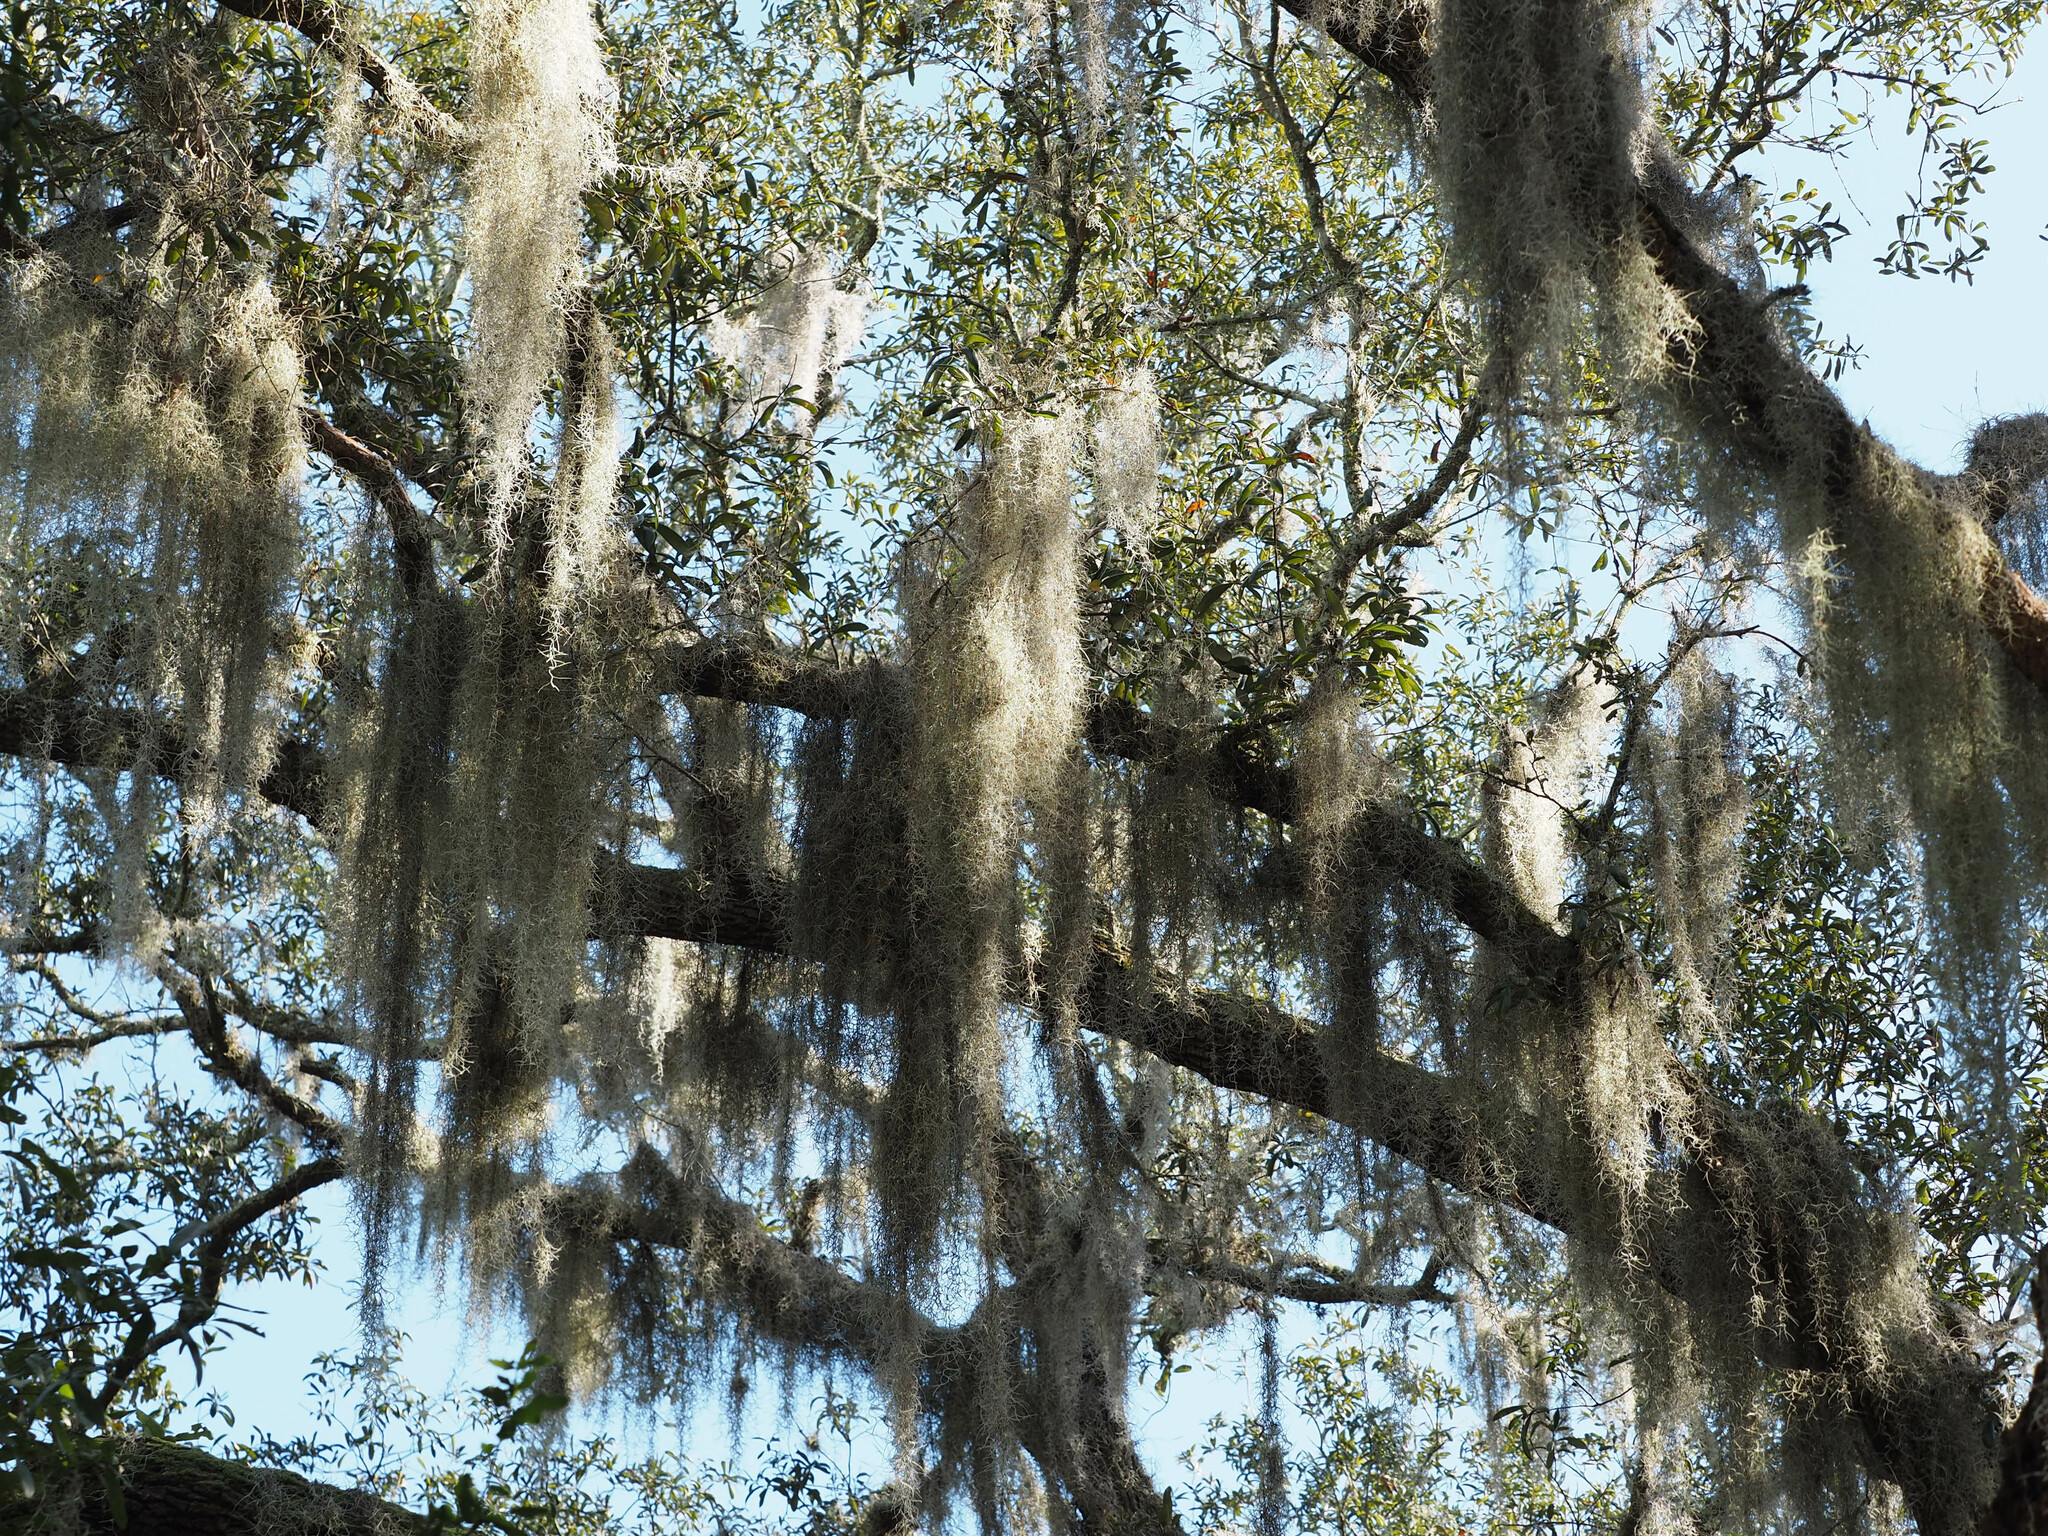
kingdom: Plantae
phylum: Tracheophyta
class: Liliopsida
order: Poales
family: Bromeliaceae
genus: Tillandsia
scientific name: Tillandsia usneoides
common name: Spanish moss
